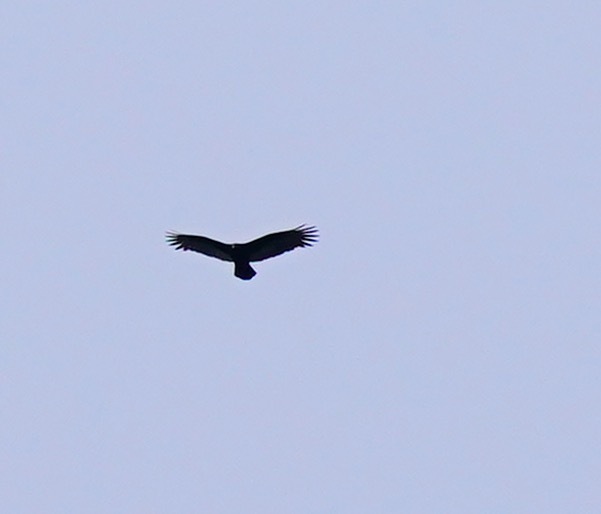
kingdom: Animalia
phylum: Chordata
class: Aves
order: Accipitriformes
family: Cathartidae
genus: Cathartes
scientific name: Cathartes aura
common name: Turkey vulture
